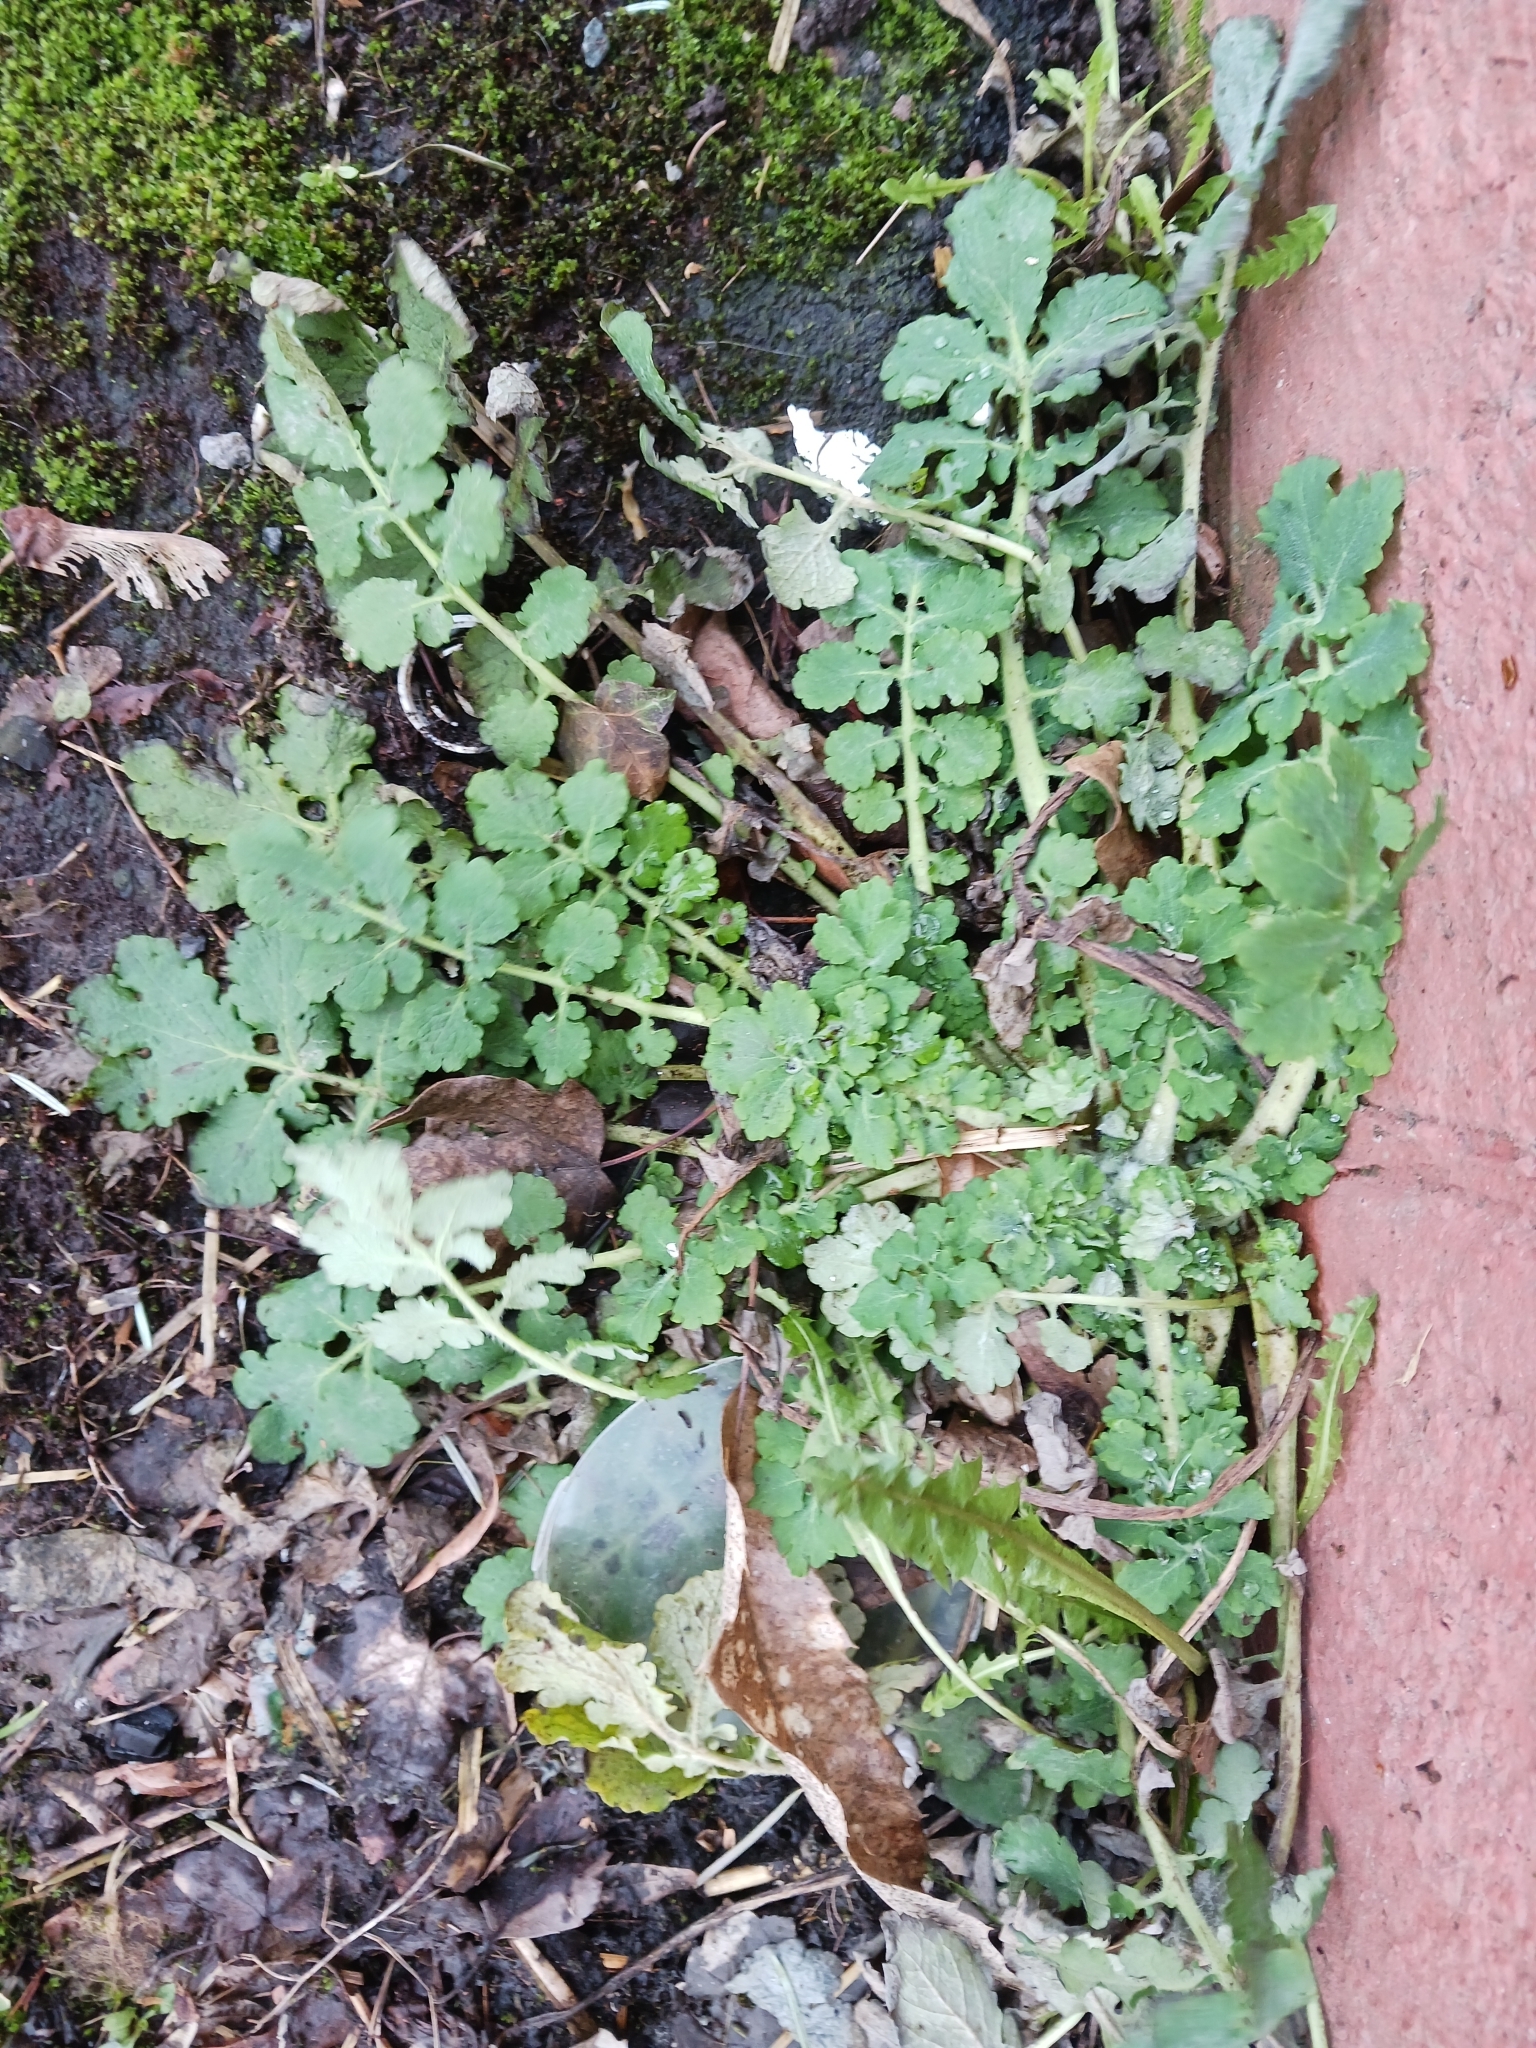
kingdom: Plantae
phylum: Tracheophyta
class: Magnoliopsida
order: Ranunculales
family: Papaveraceae
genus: Chelidonium
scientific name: Chelidonium majus
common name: Greater celandine
